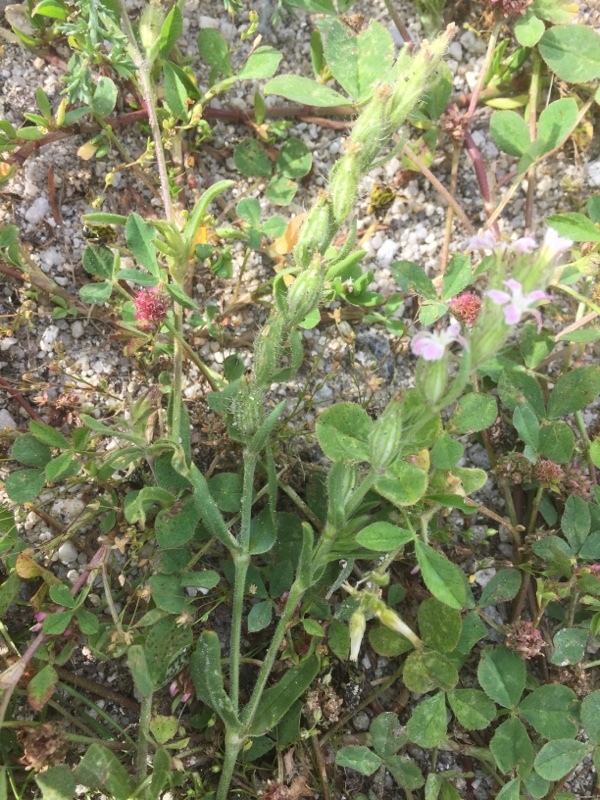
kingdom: Plantae
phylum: Tracheophyta
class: Magnoliopsida
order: Caryophyllales
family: Caryophyllaceae
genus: Silene
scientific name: Silene dioica
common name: Red campion
